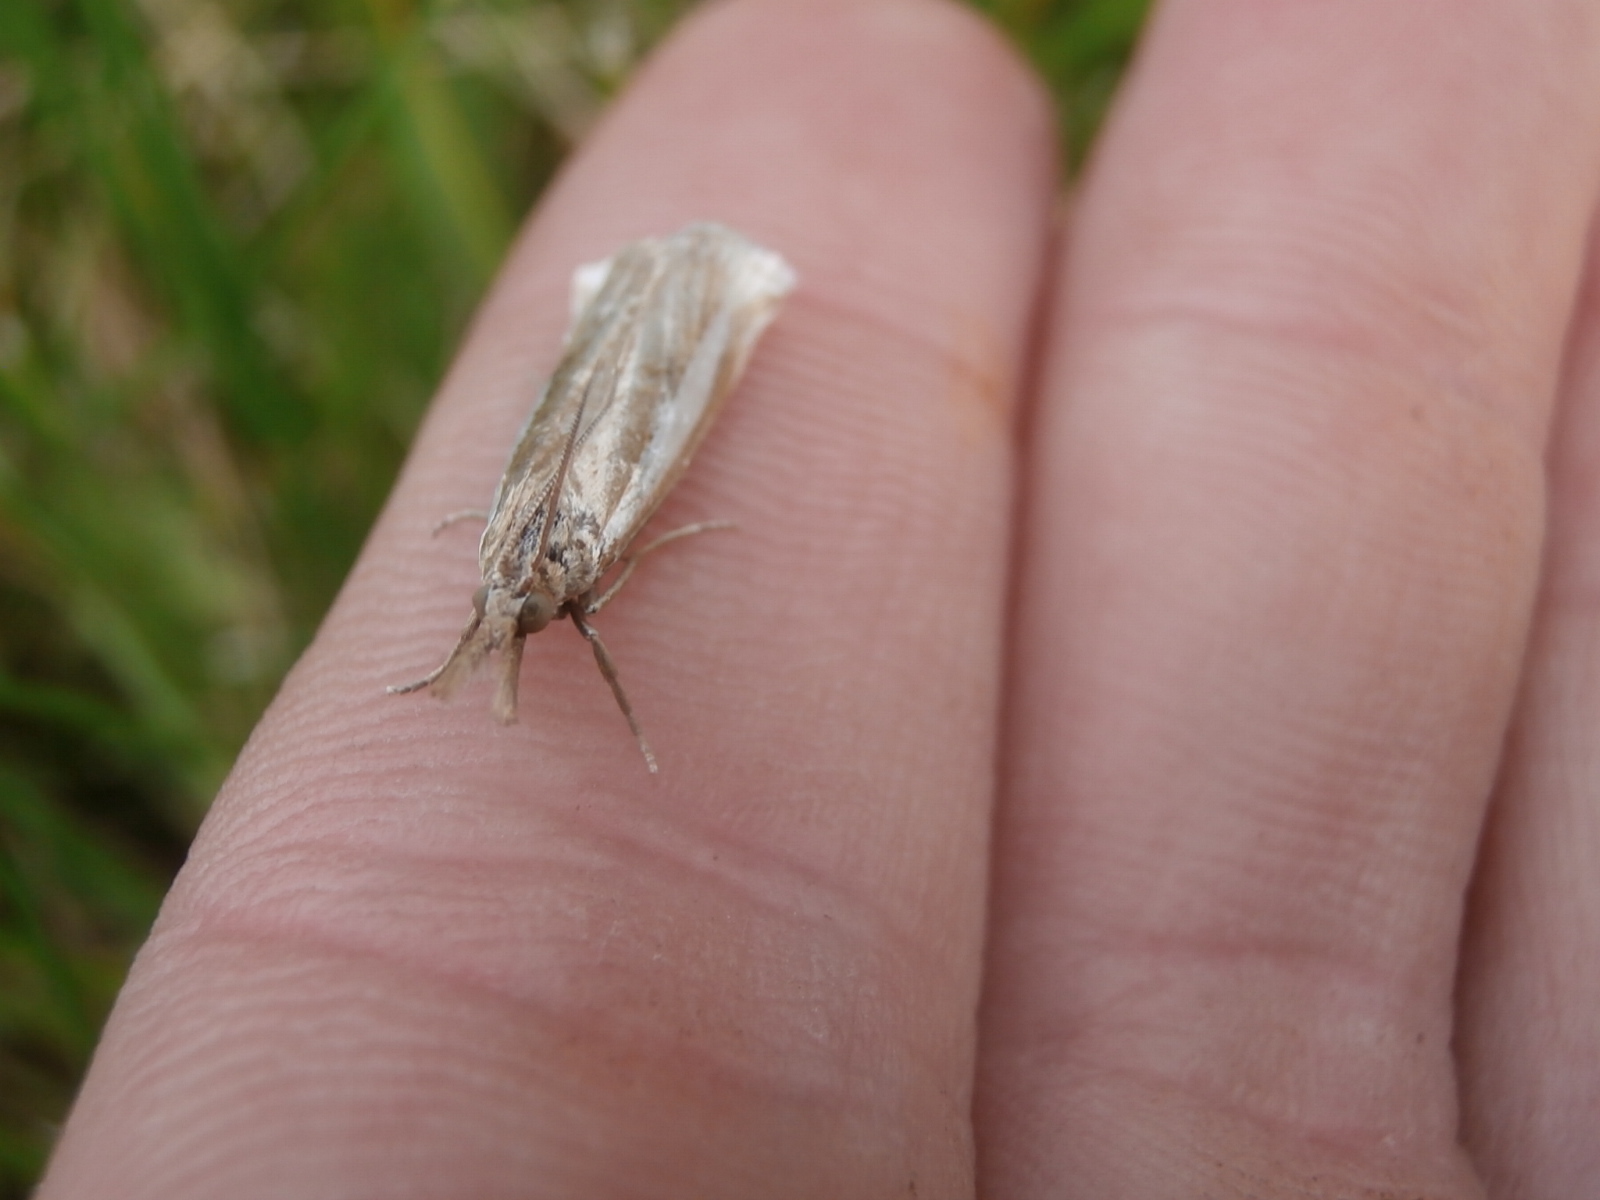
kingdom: Animalia
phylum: Arthropoda
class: Insecta
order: Lepidoptera
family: Crambidae
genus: Crambus
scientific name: Crambus praefectellus
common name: Common grass-veneer
